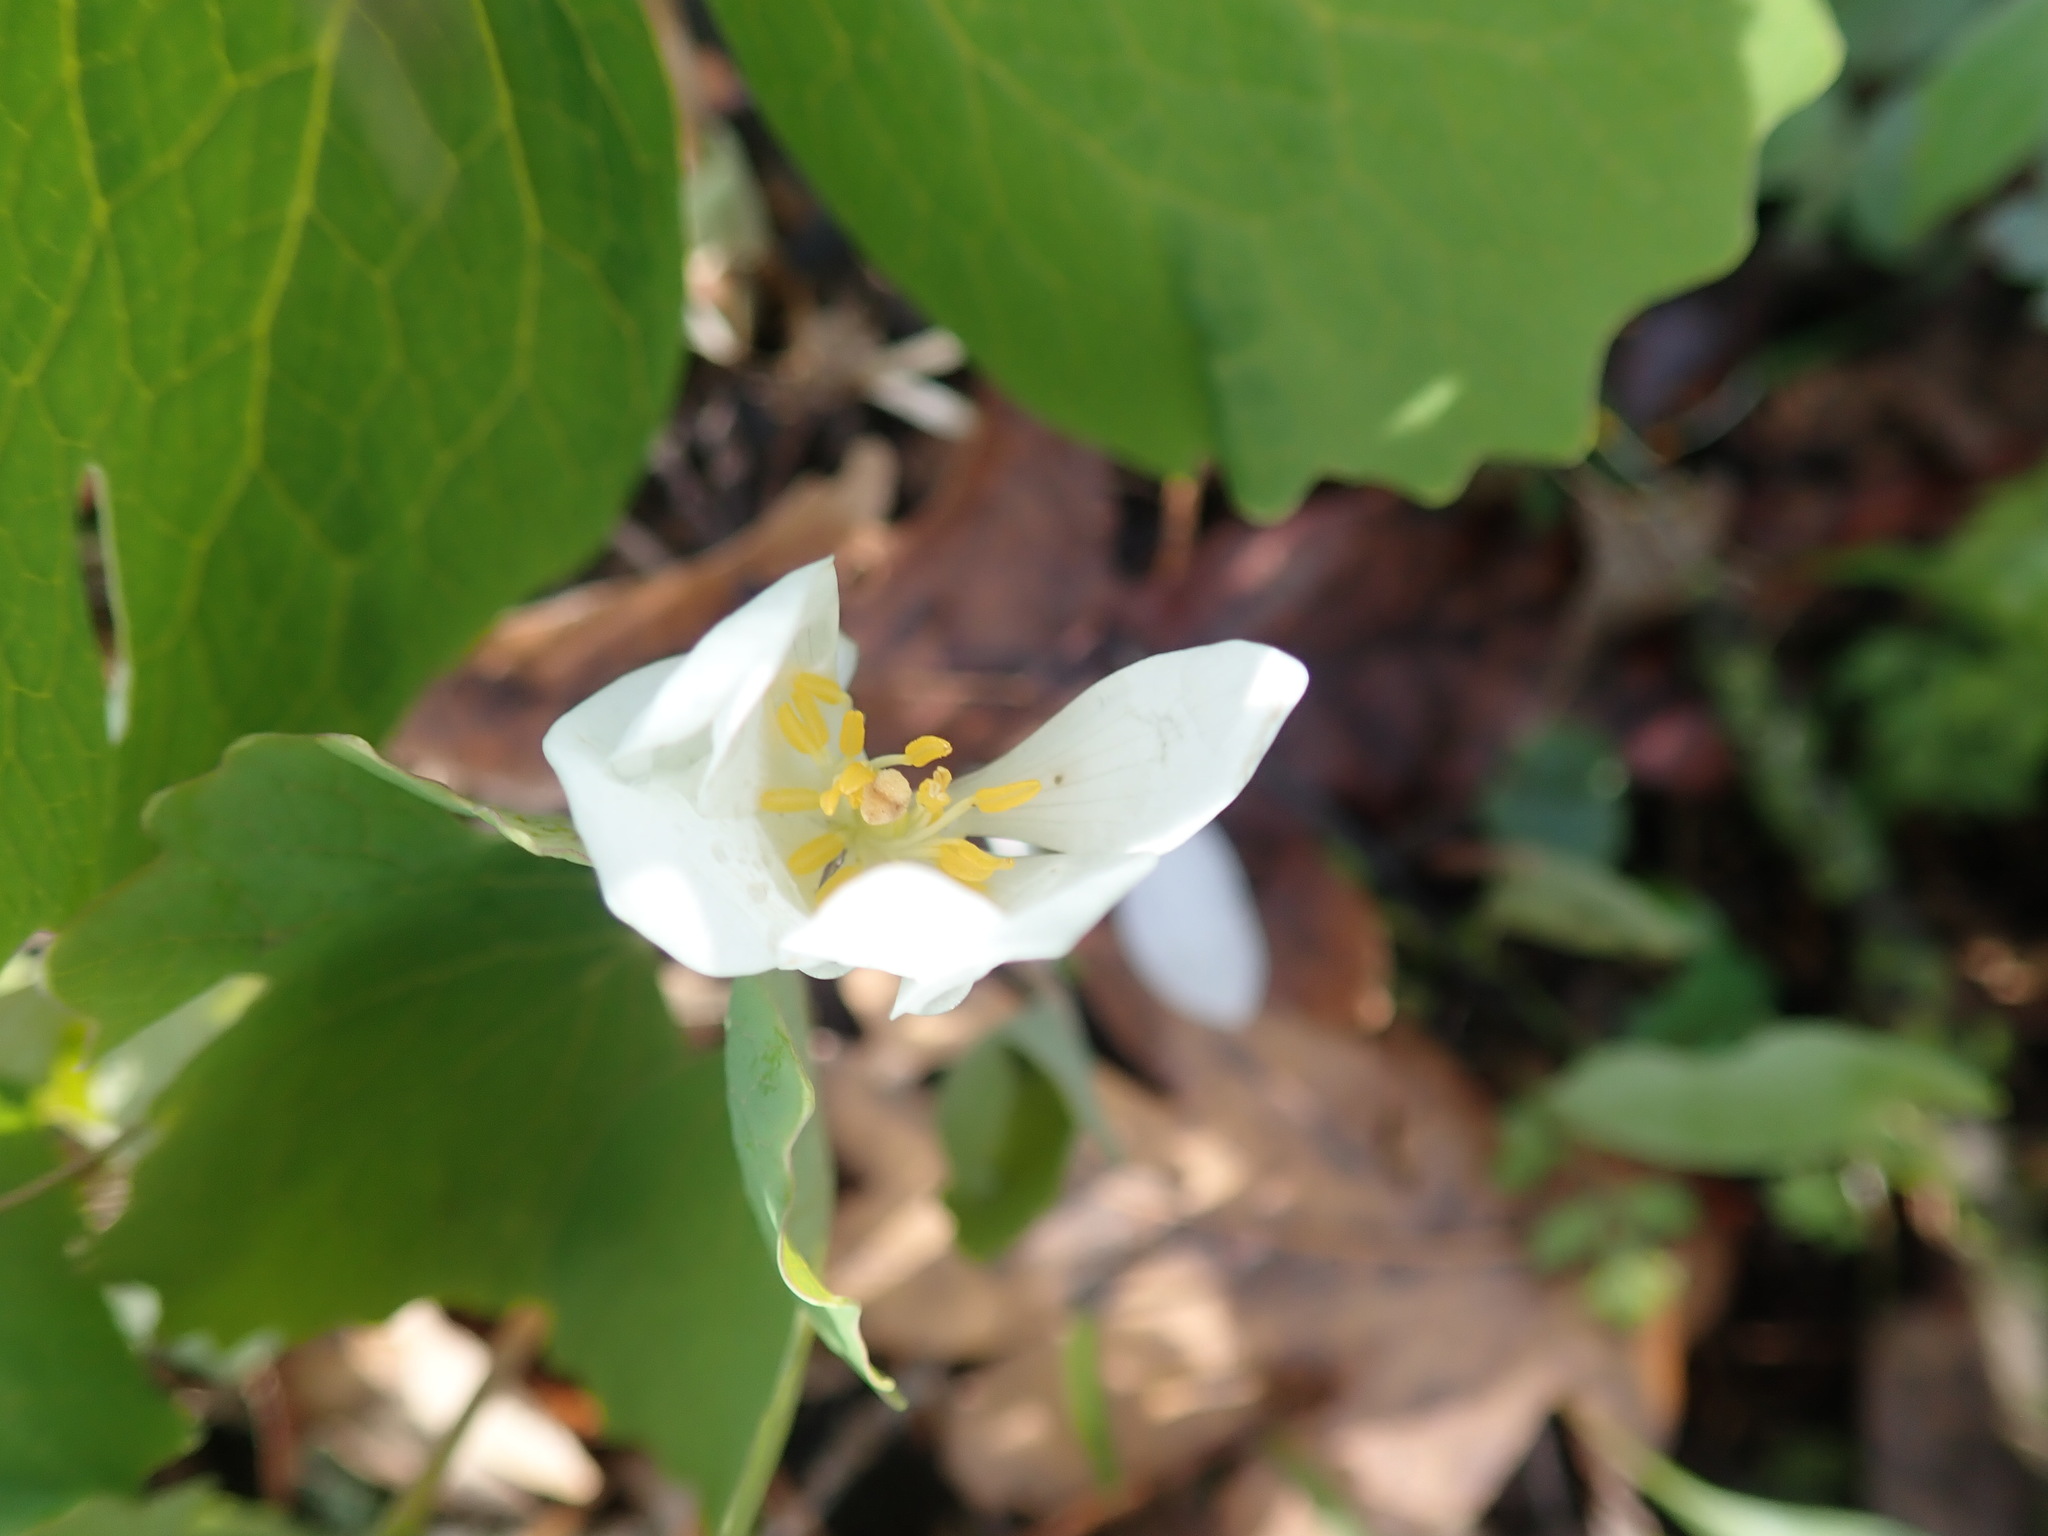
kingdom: Plantae
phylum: Tracheophyta
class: Magnoliopsida
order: Ranunculales
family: Papaveraceae
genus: Sanguinaria
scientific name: Sanguinaria canadensis
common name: Bloodroot
